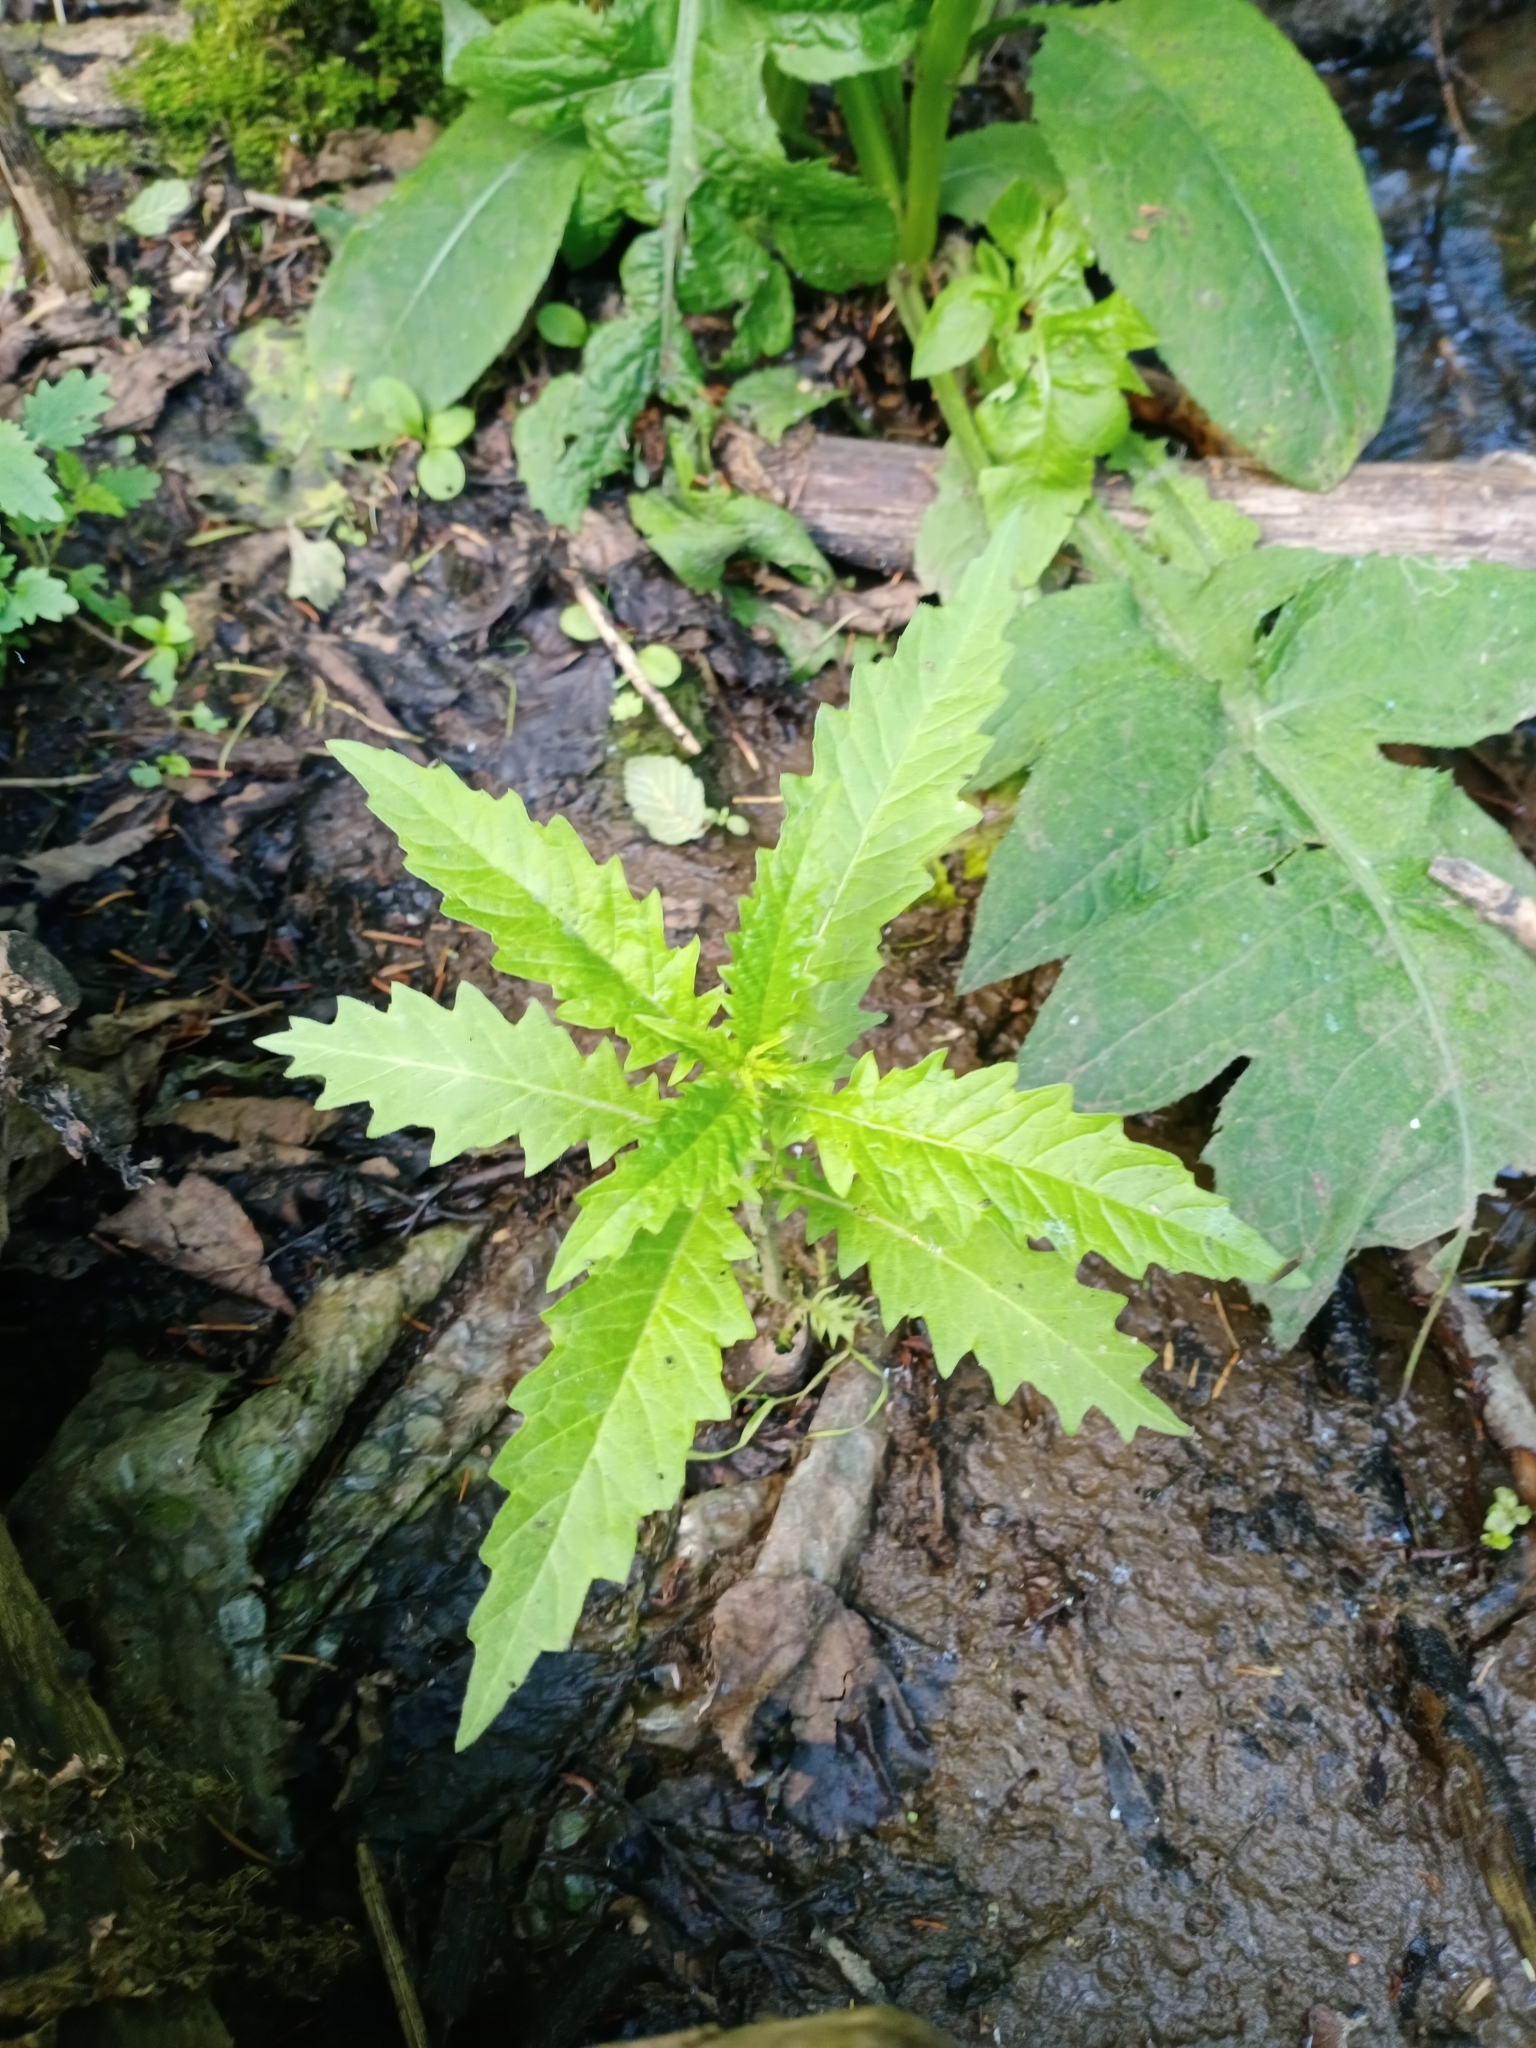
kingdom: Plantae
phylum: Tracheophyta
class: Magnoliopsida
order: Lamiales
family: Lamiaceae
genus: Lycopus
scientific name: Lycopus europaeus
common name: European bugleweed
